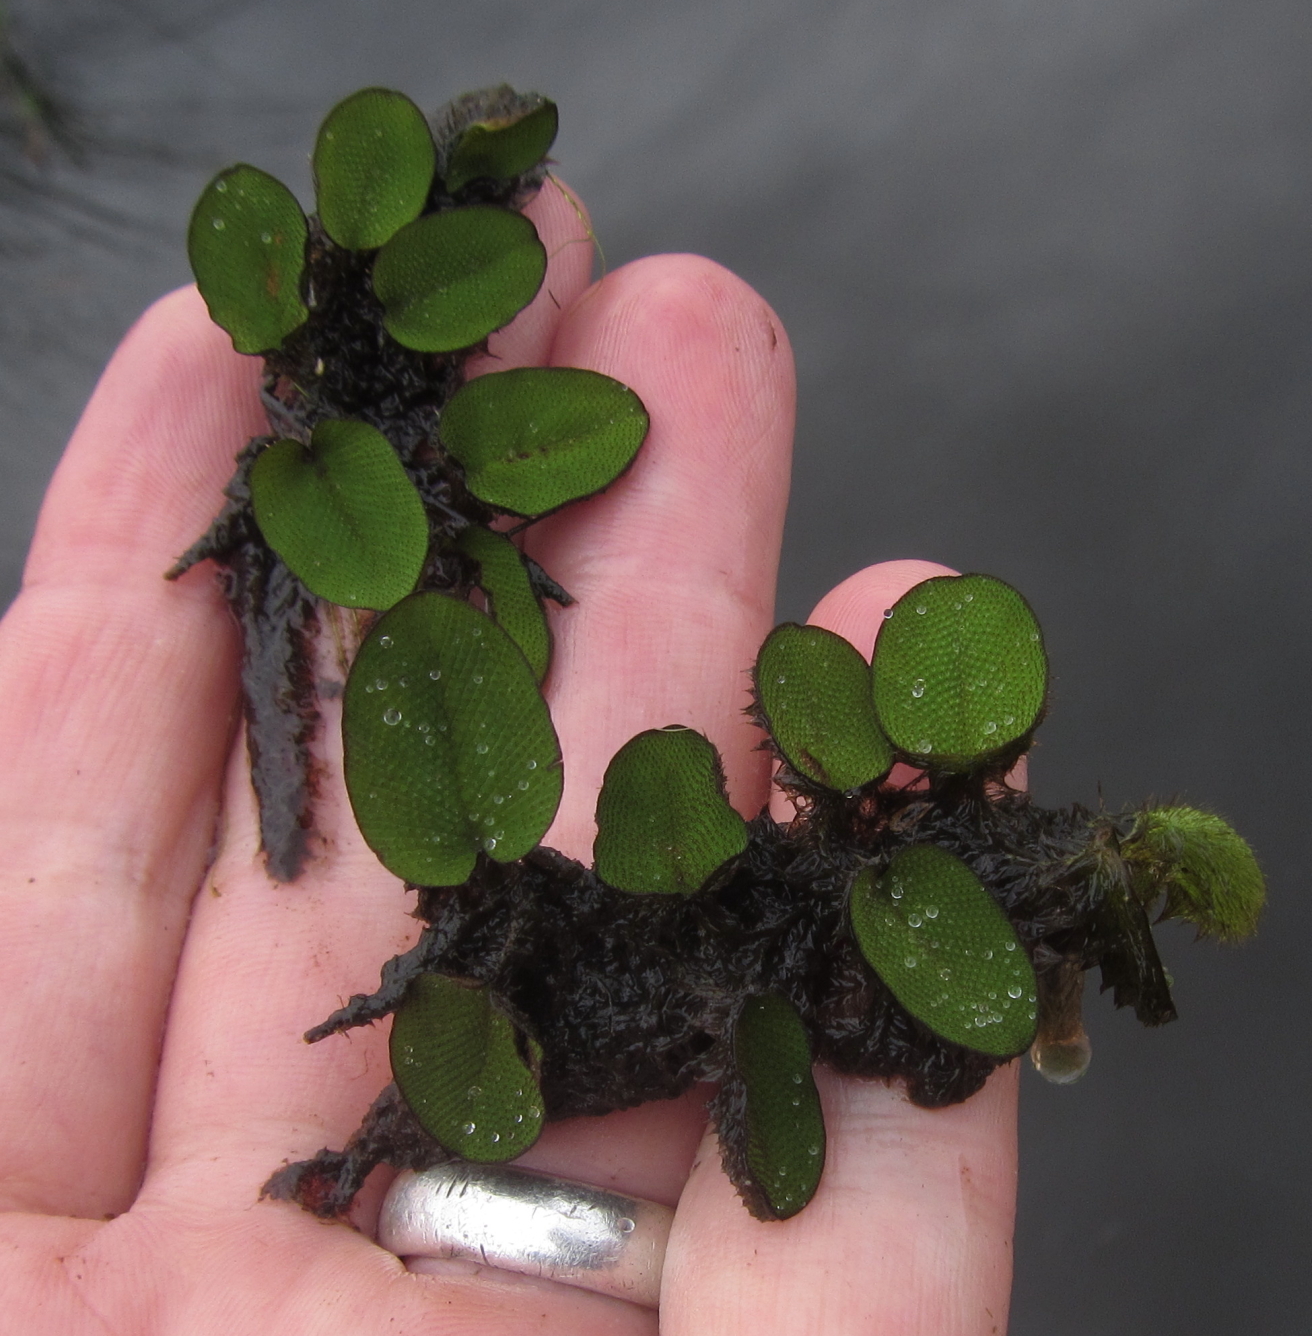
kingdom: Plantae
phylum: Tracheophyta
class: Polypodiopsida
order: Salviniales
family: Salviniaceae
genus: Salvinia
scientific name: Salvinia molesta
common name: Kariba weed
